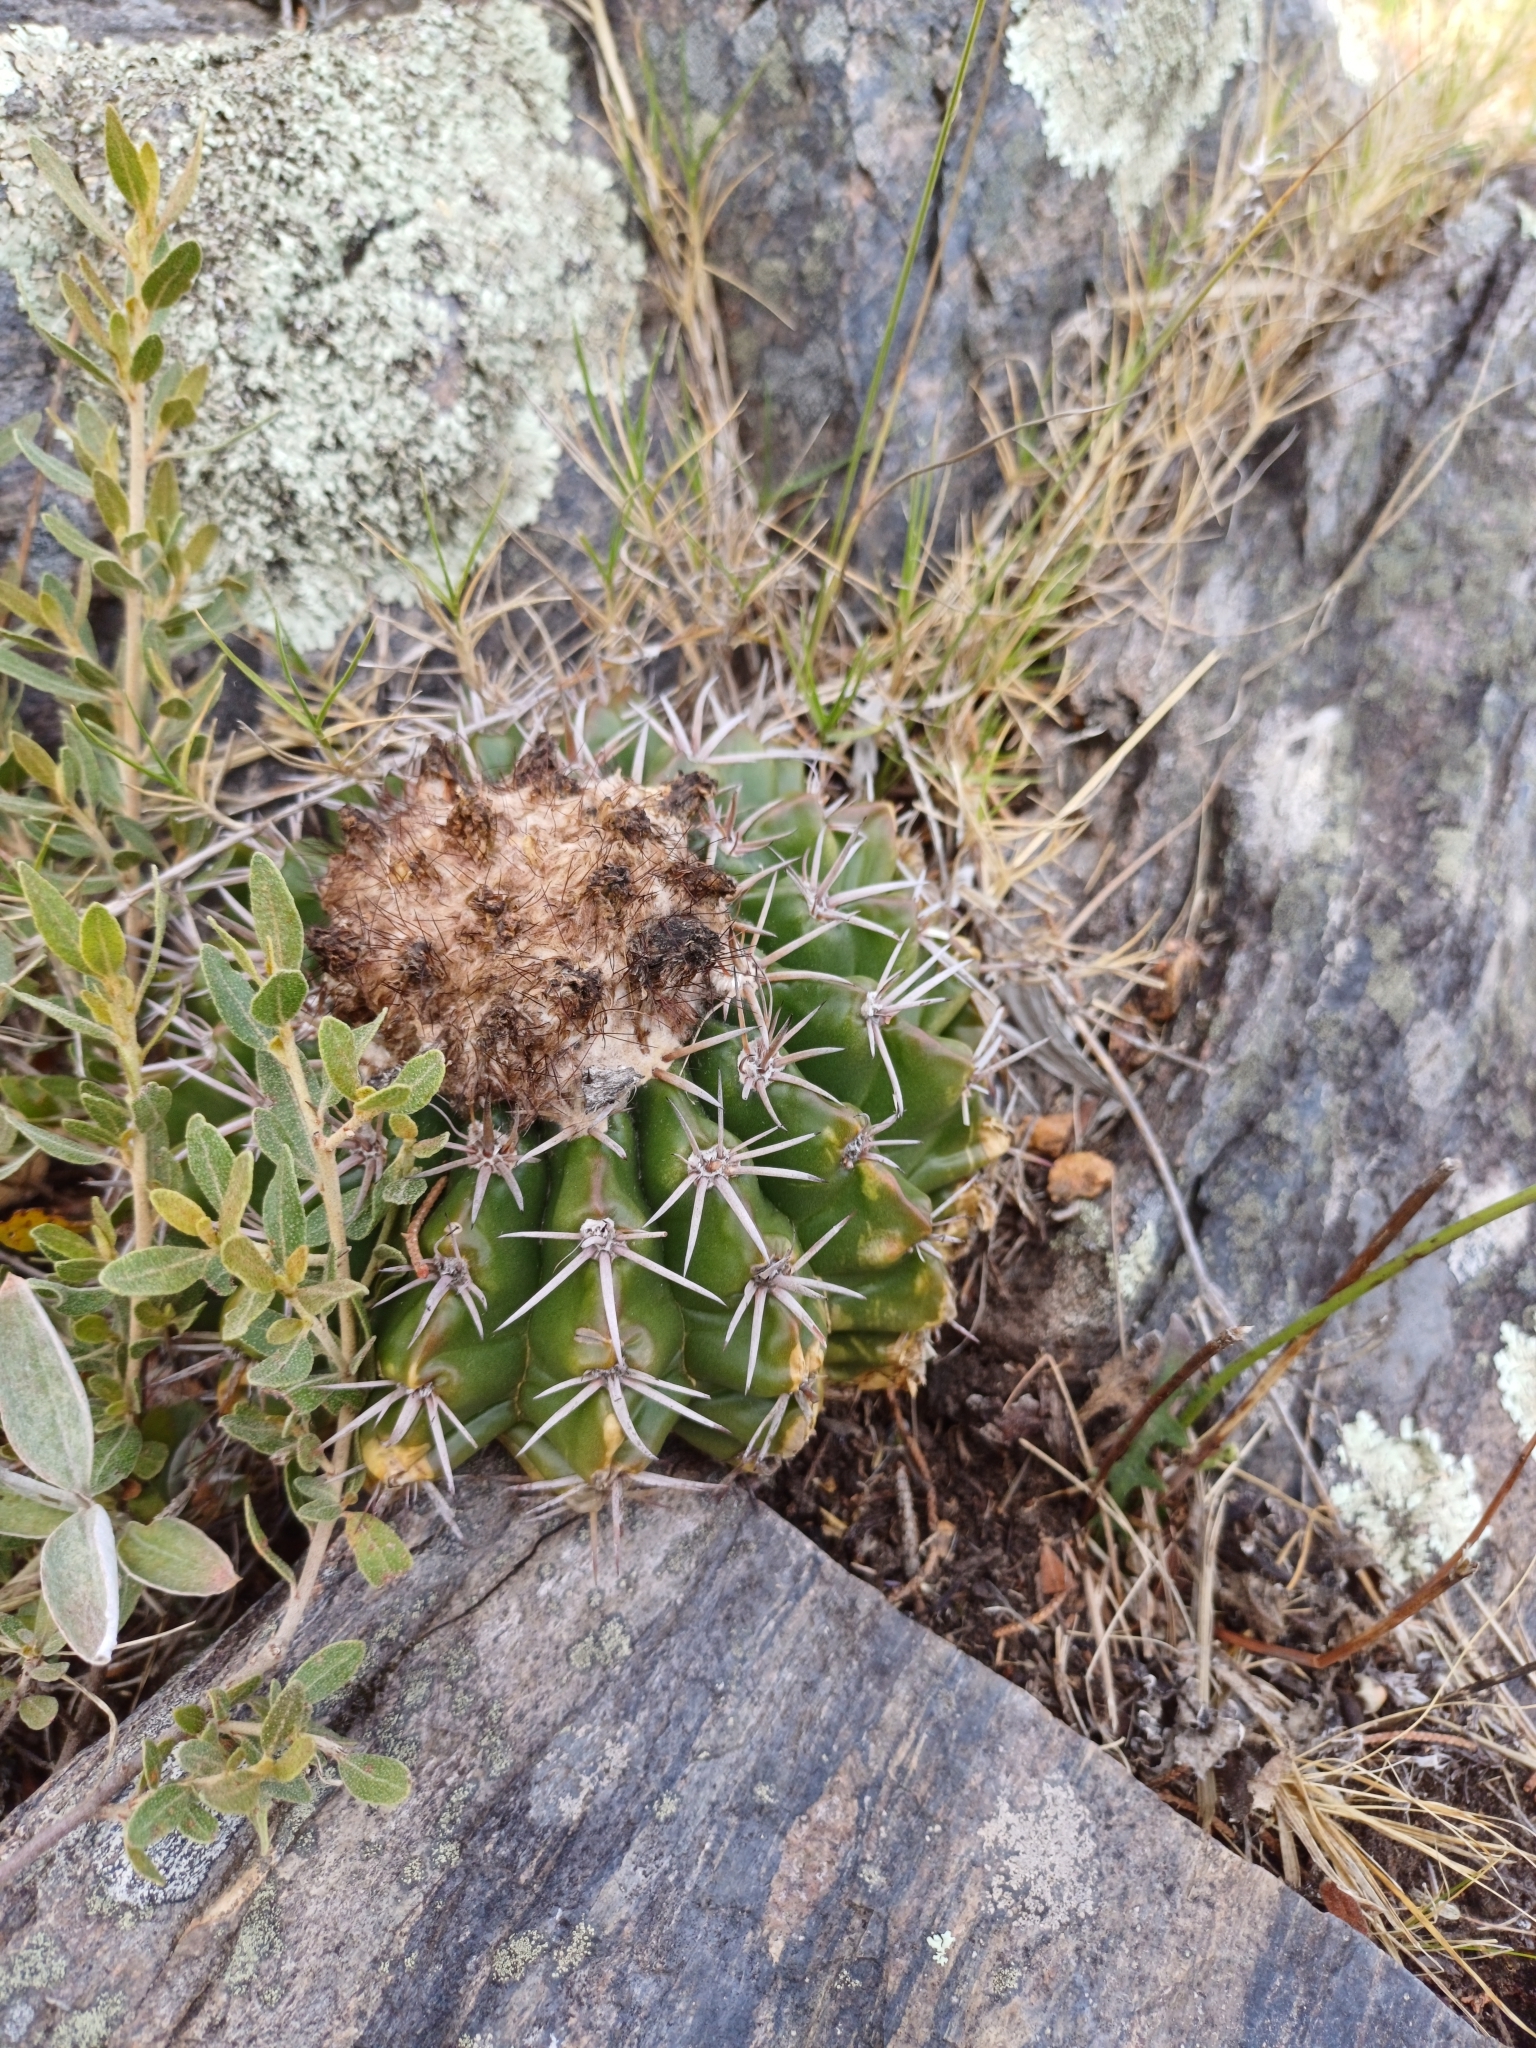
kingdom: Plantae
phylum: Tracheophyta
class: Magnoliopsida
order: Caryophyllales
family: Cactaceae
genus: Parodia
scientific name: Parodia erinacea
